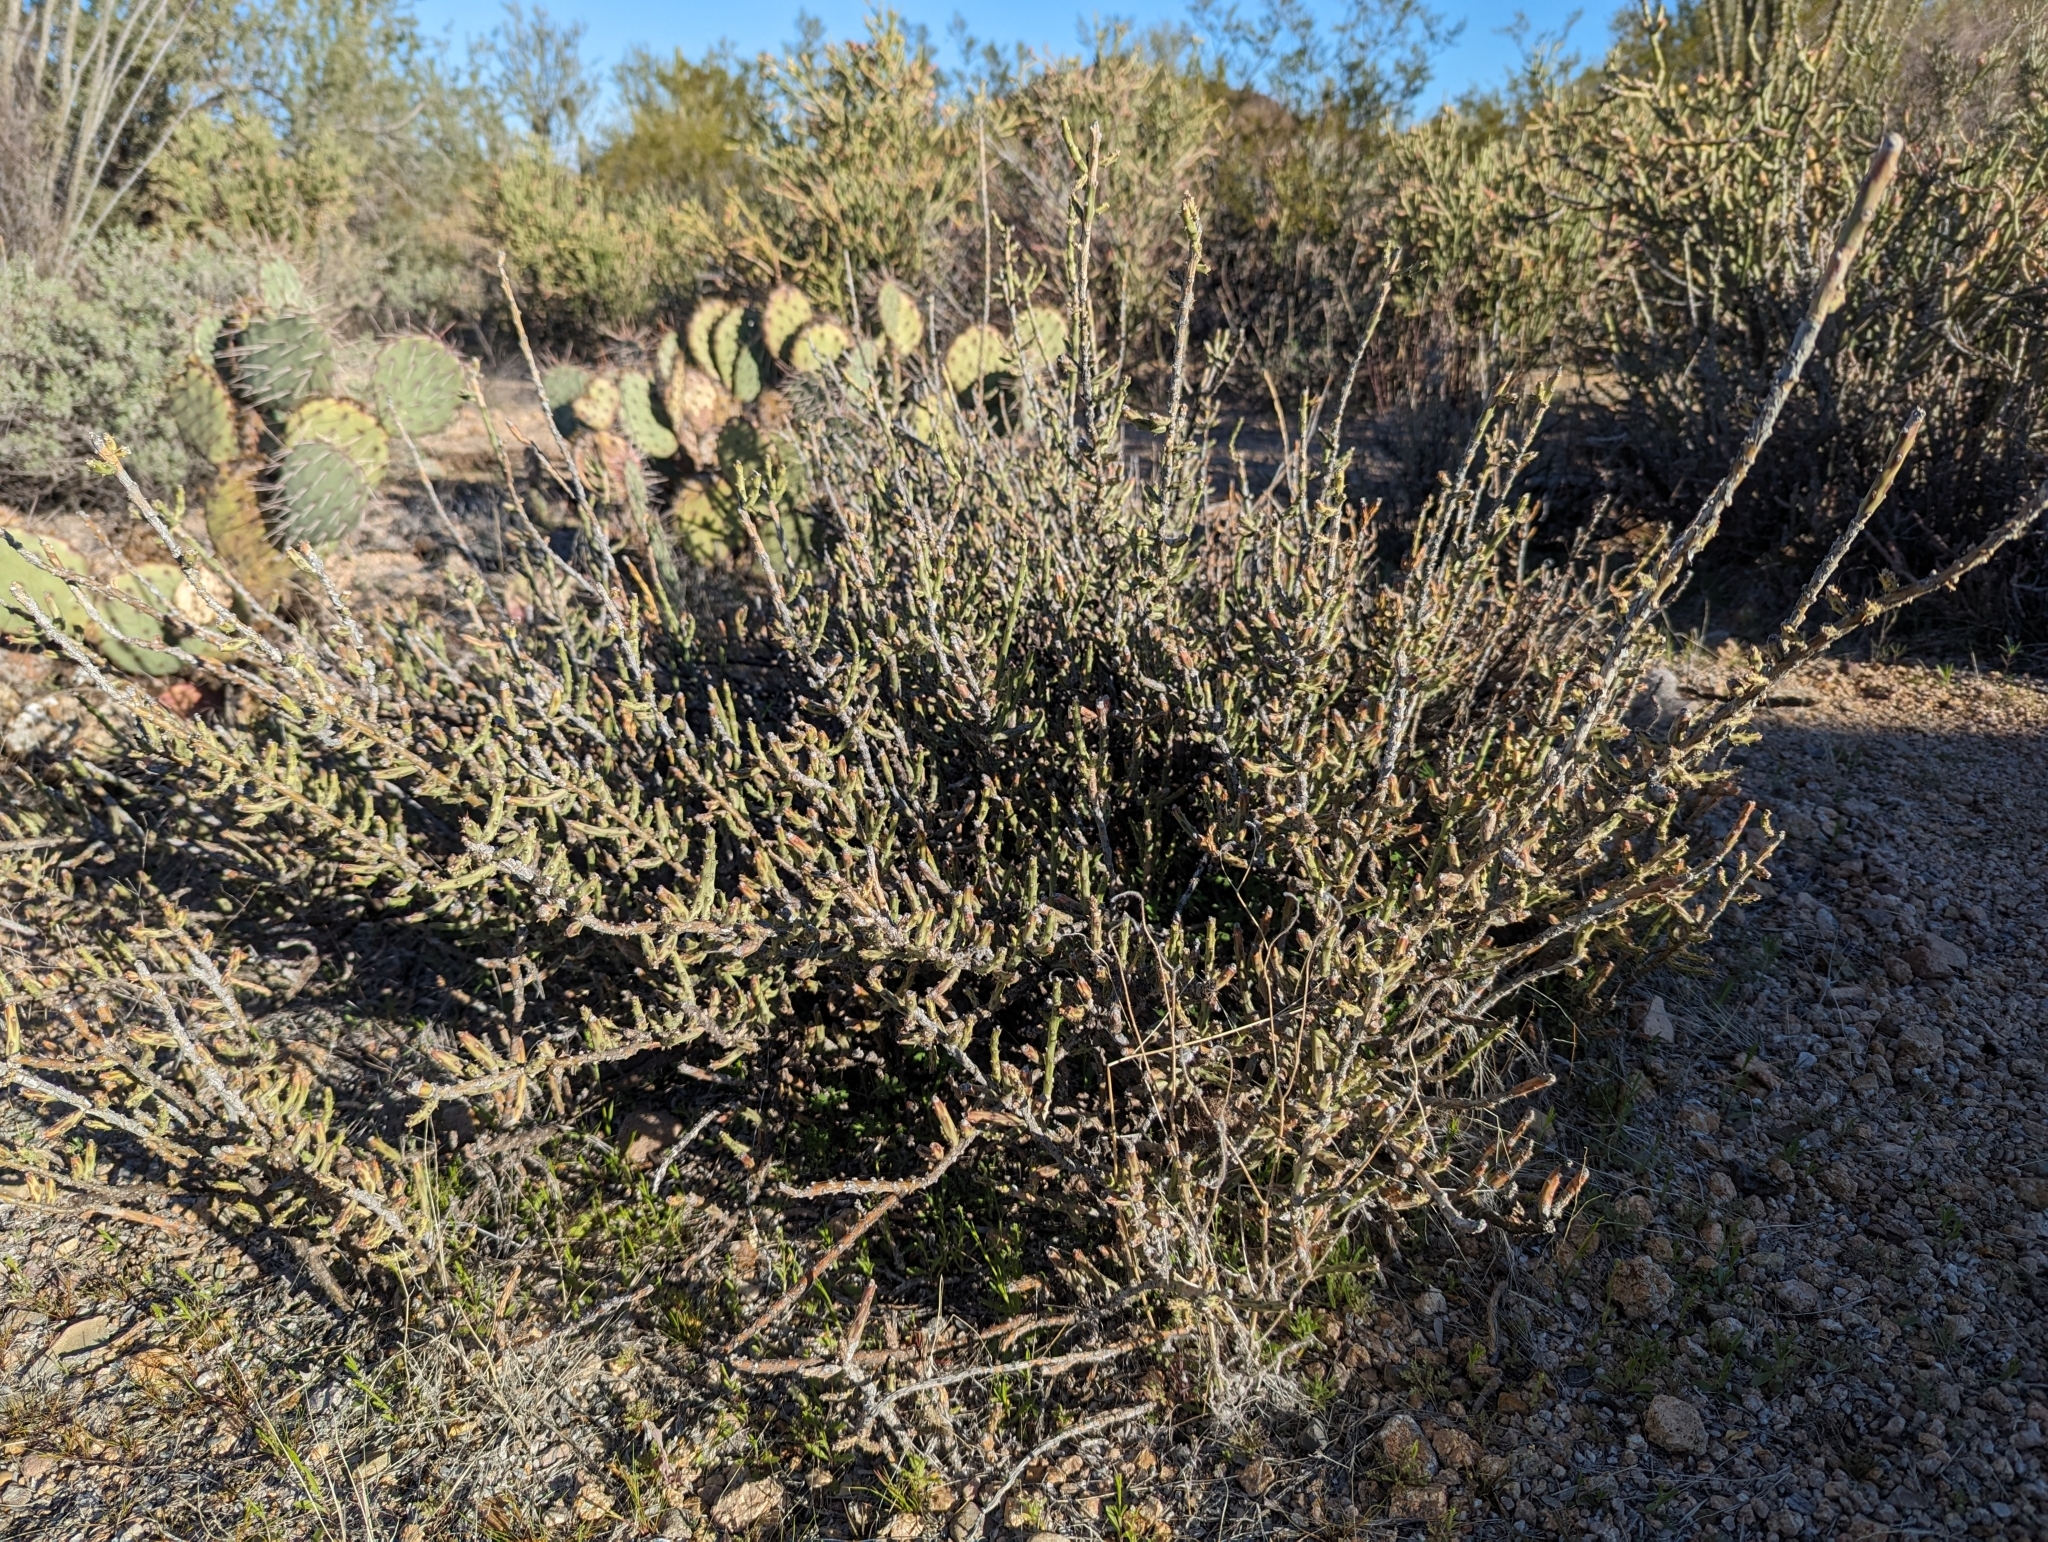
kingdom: Plantae
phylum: Tracheophyta
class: Magnoliopsida
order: Caryophyllales
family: Cactaceae
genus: Cylindropuntia
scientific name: Cylindropuntia leptocaulis
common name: Christmas cactus
